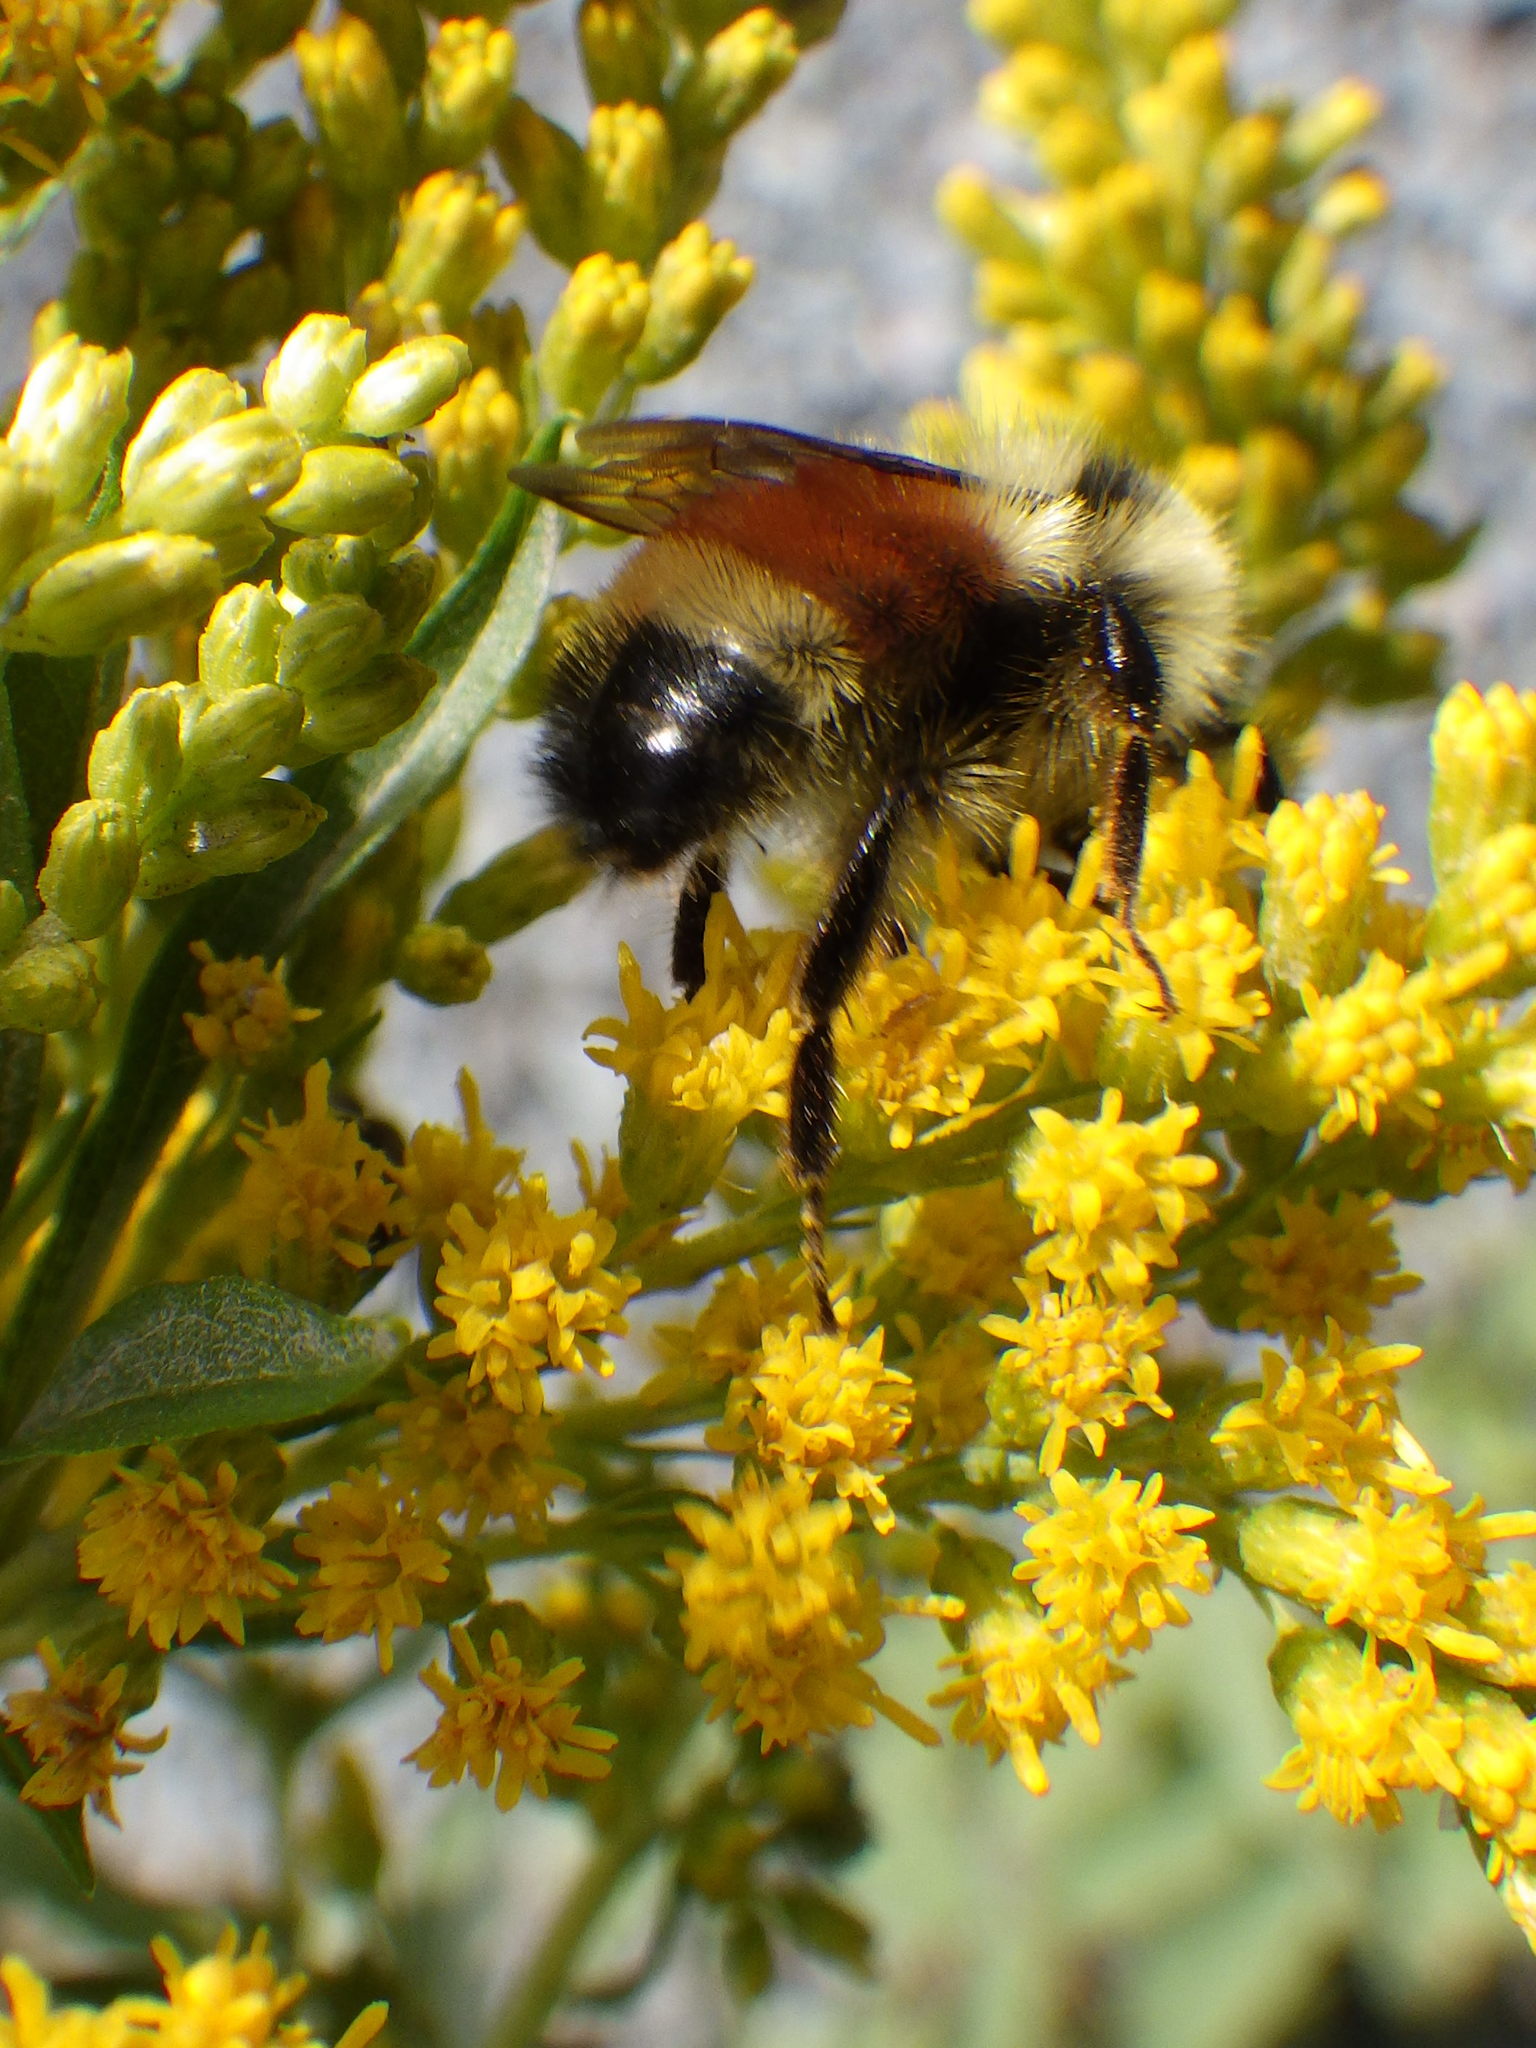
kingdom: Animalia
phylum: Arthropoda
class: Insecta
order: Hymenoptera
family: Apidae
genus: Bombus
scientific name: Bombus ternarius
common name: Tri-colored bumble bee
